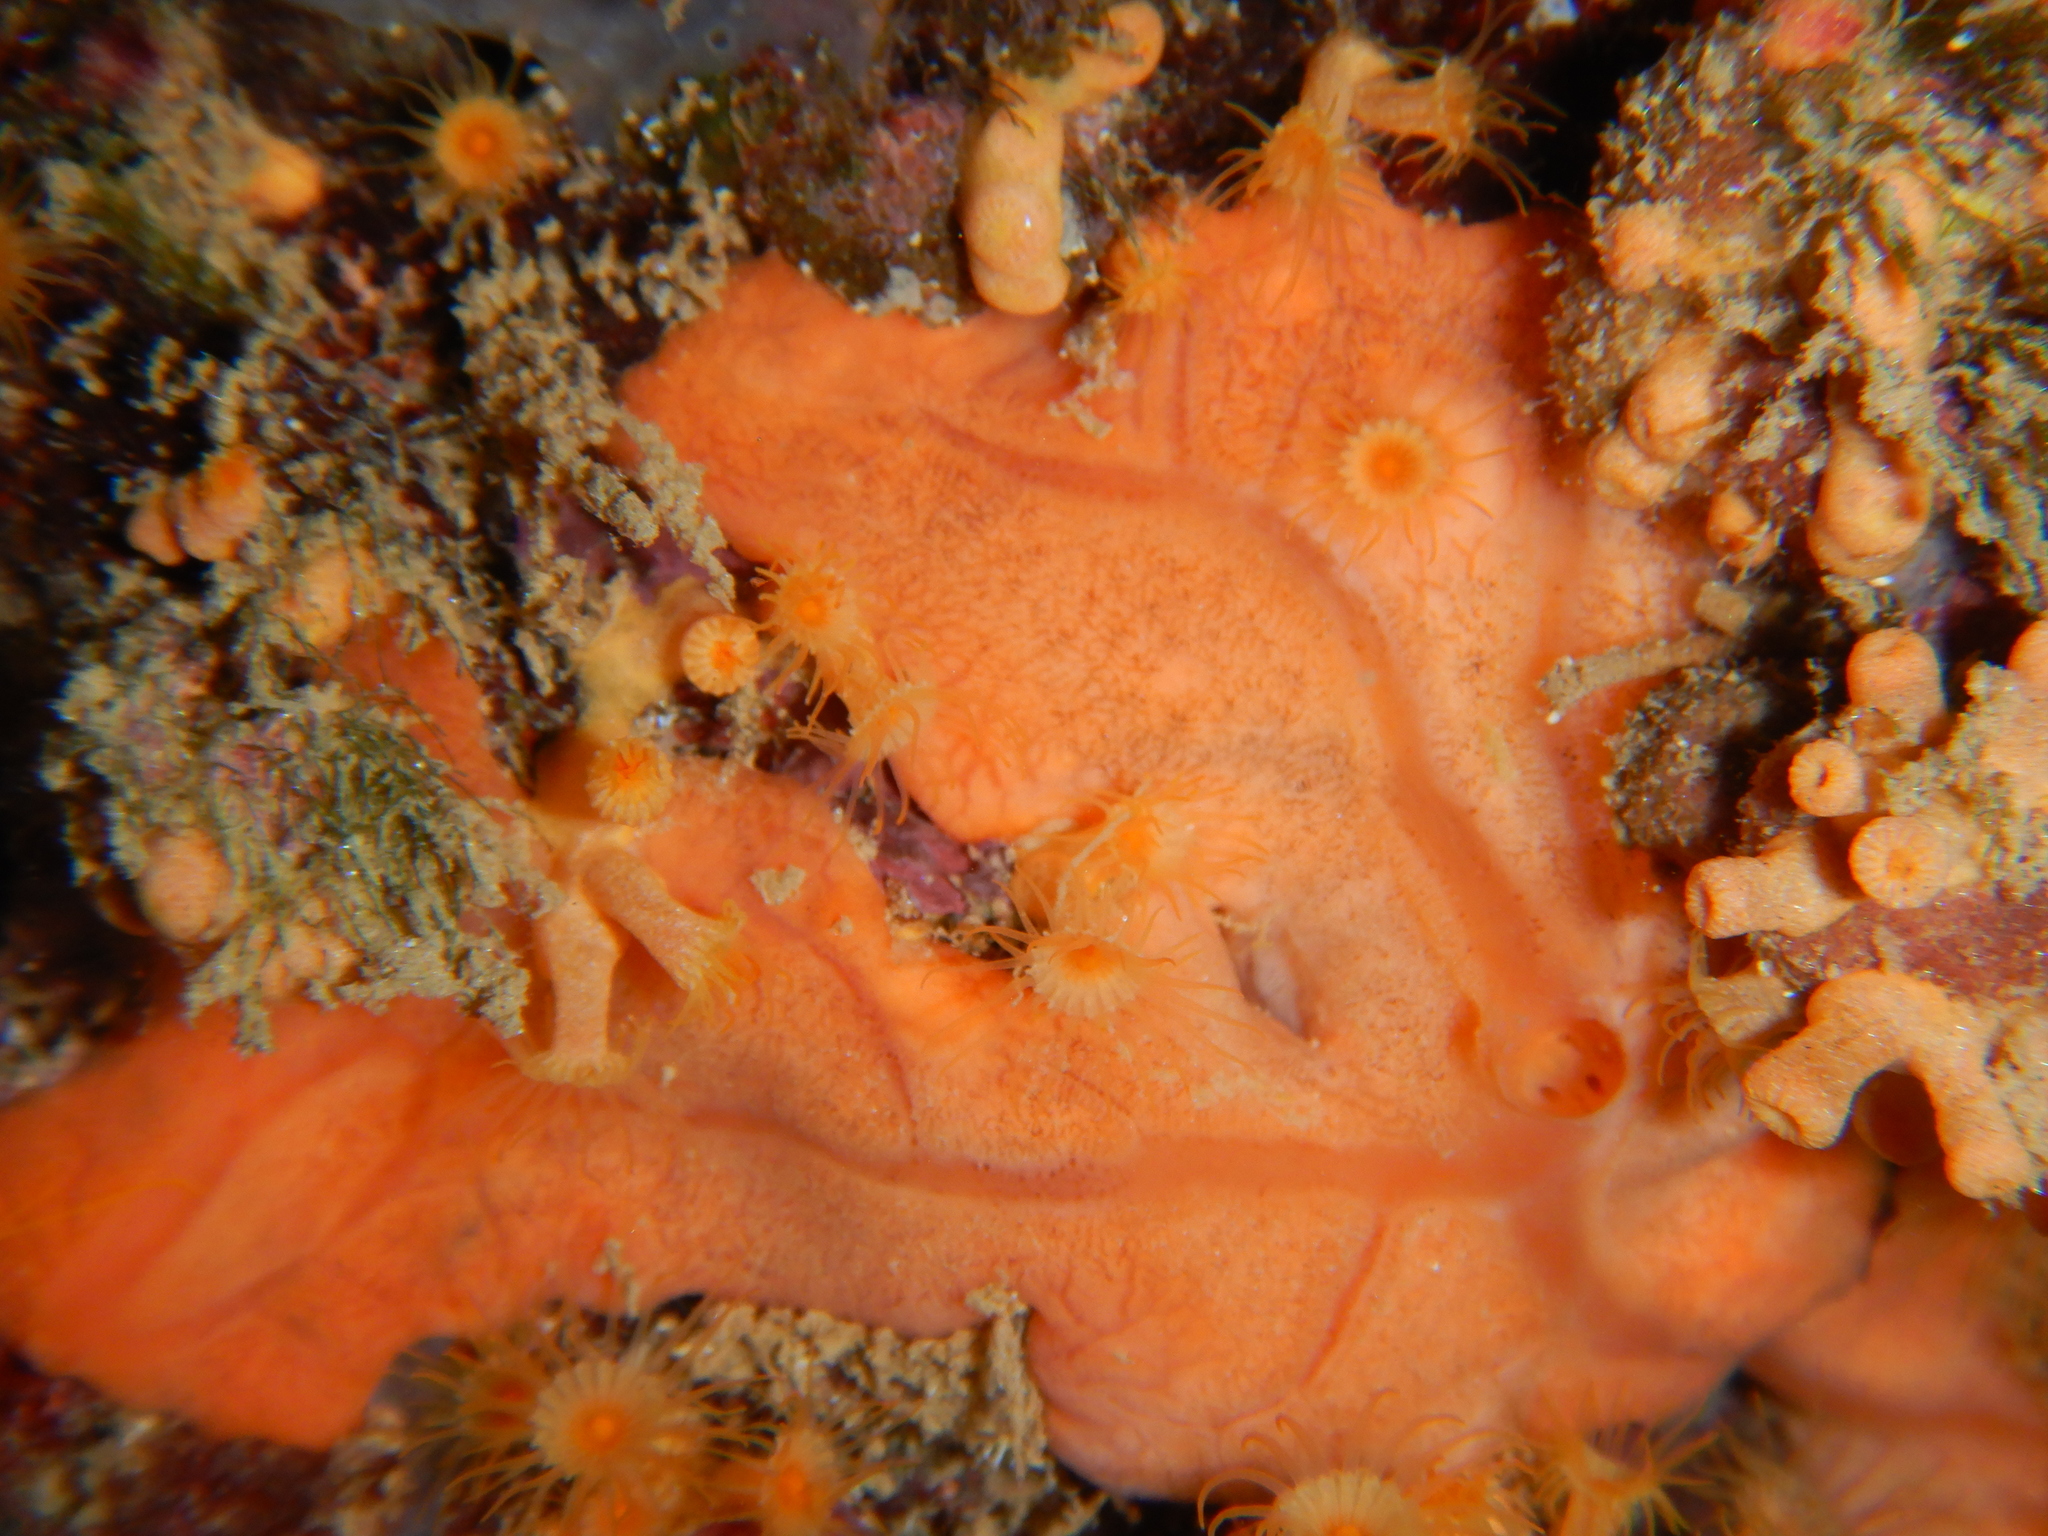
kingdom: Animalia
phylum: Porifera
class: Demospongiae
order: Clionaida
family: Spirastrellidae
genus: Spirastrella
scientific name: Spirastrella cunctatrix
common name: Encrusting orange sponge
